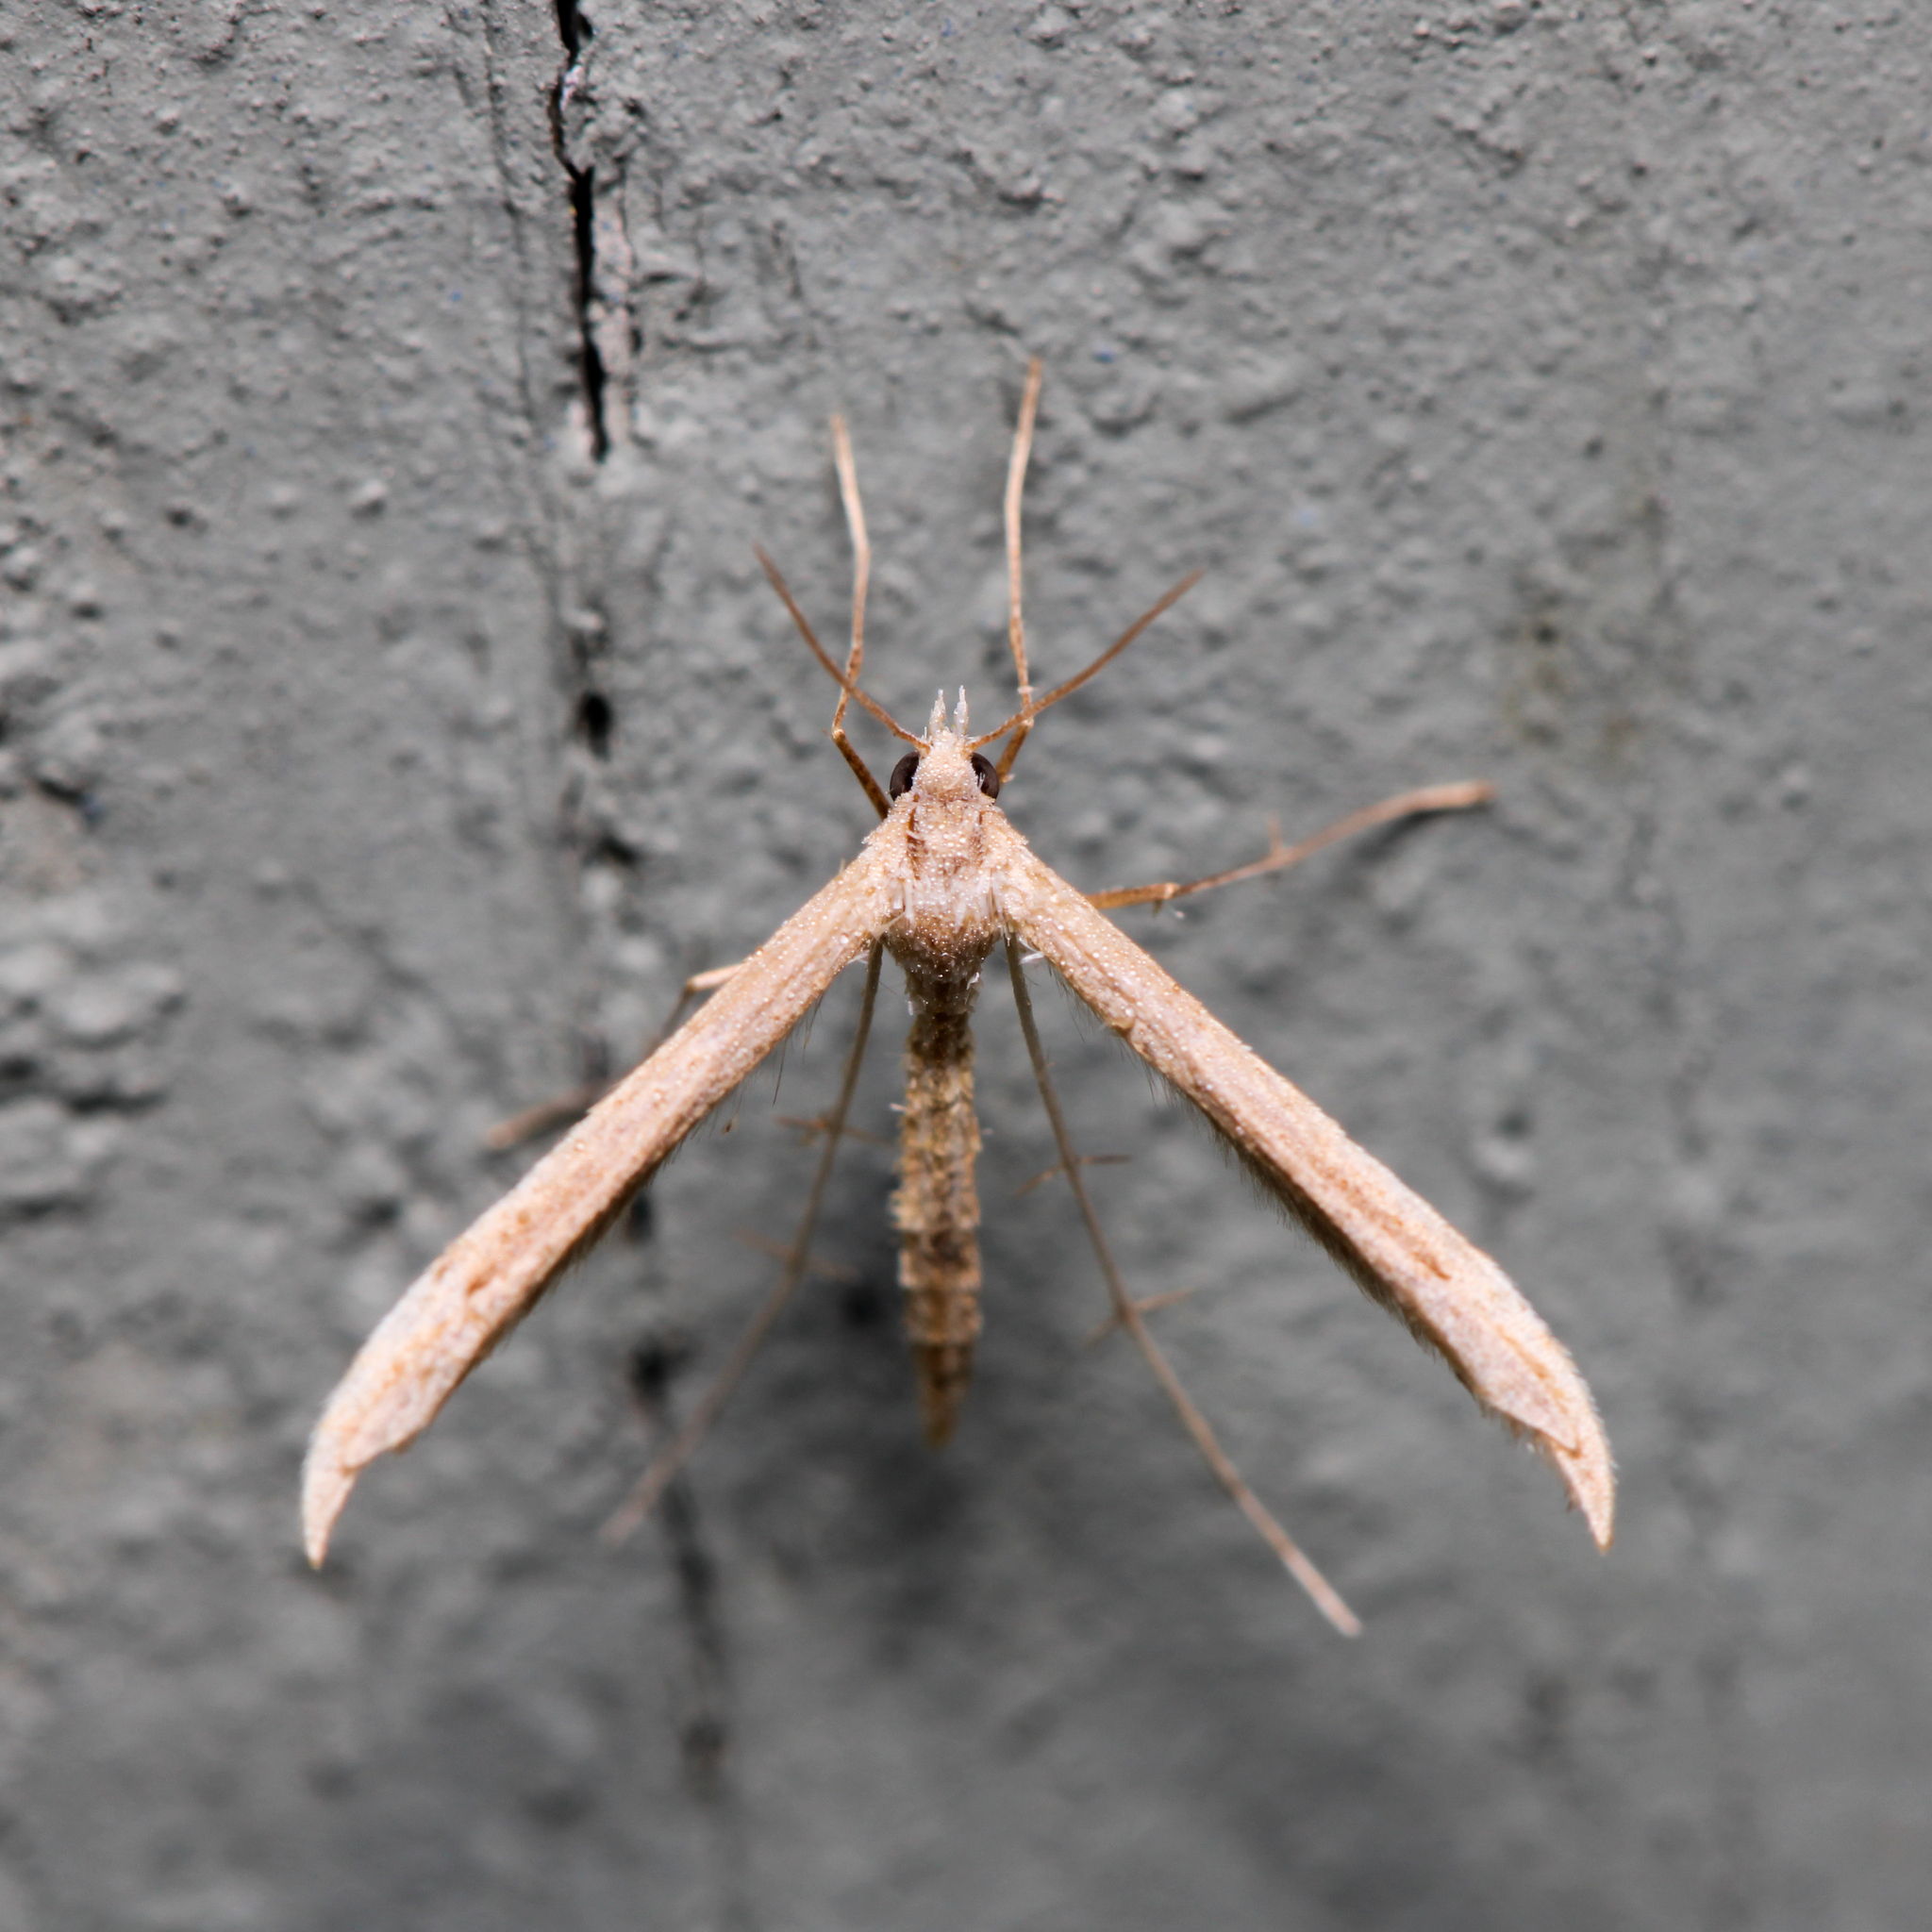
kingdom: Animalia
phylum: Arthropoda
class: Insecta
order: Lepidoptera
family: Pterophoridae
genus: Lioptilodes
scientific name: Lioptilodes albistriolatus
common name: Moth
